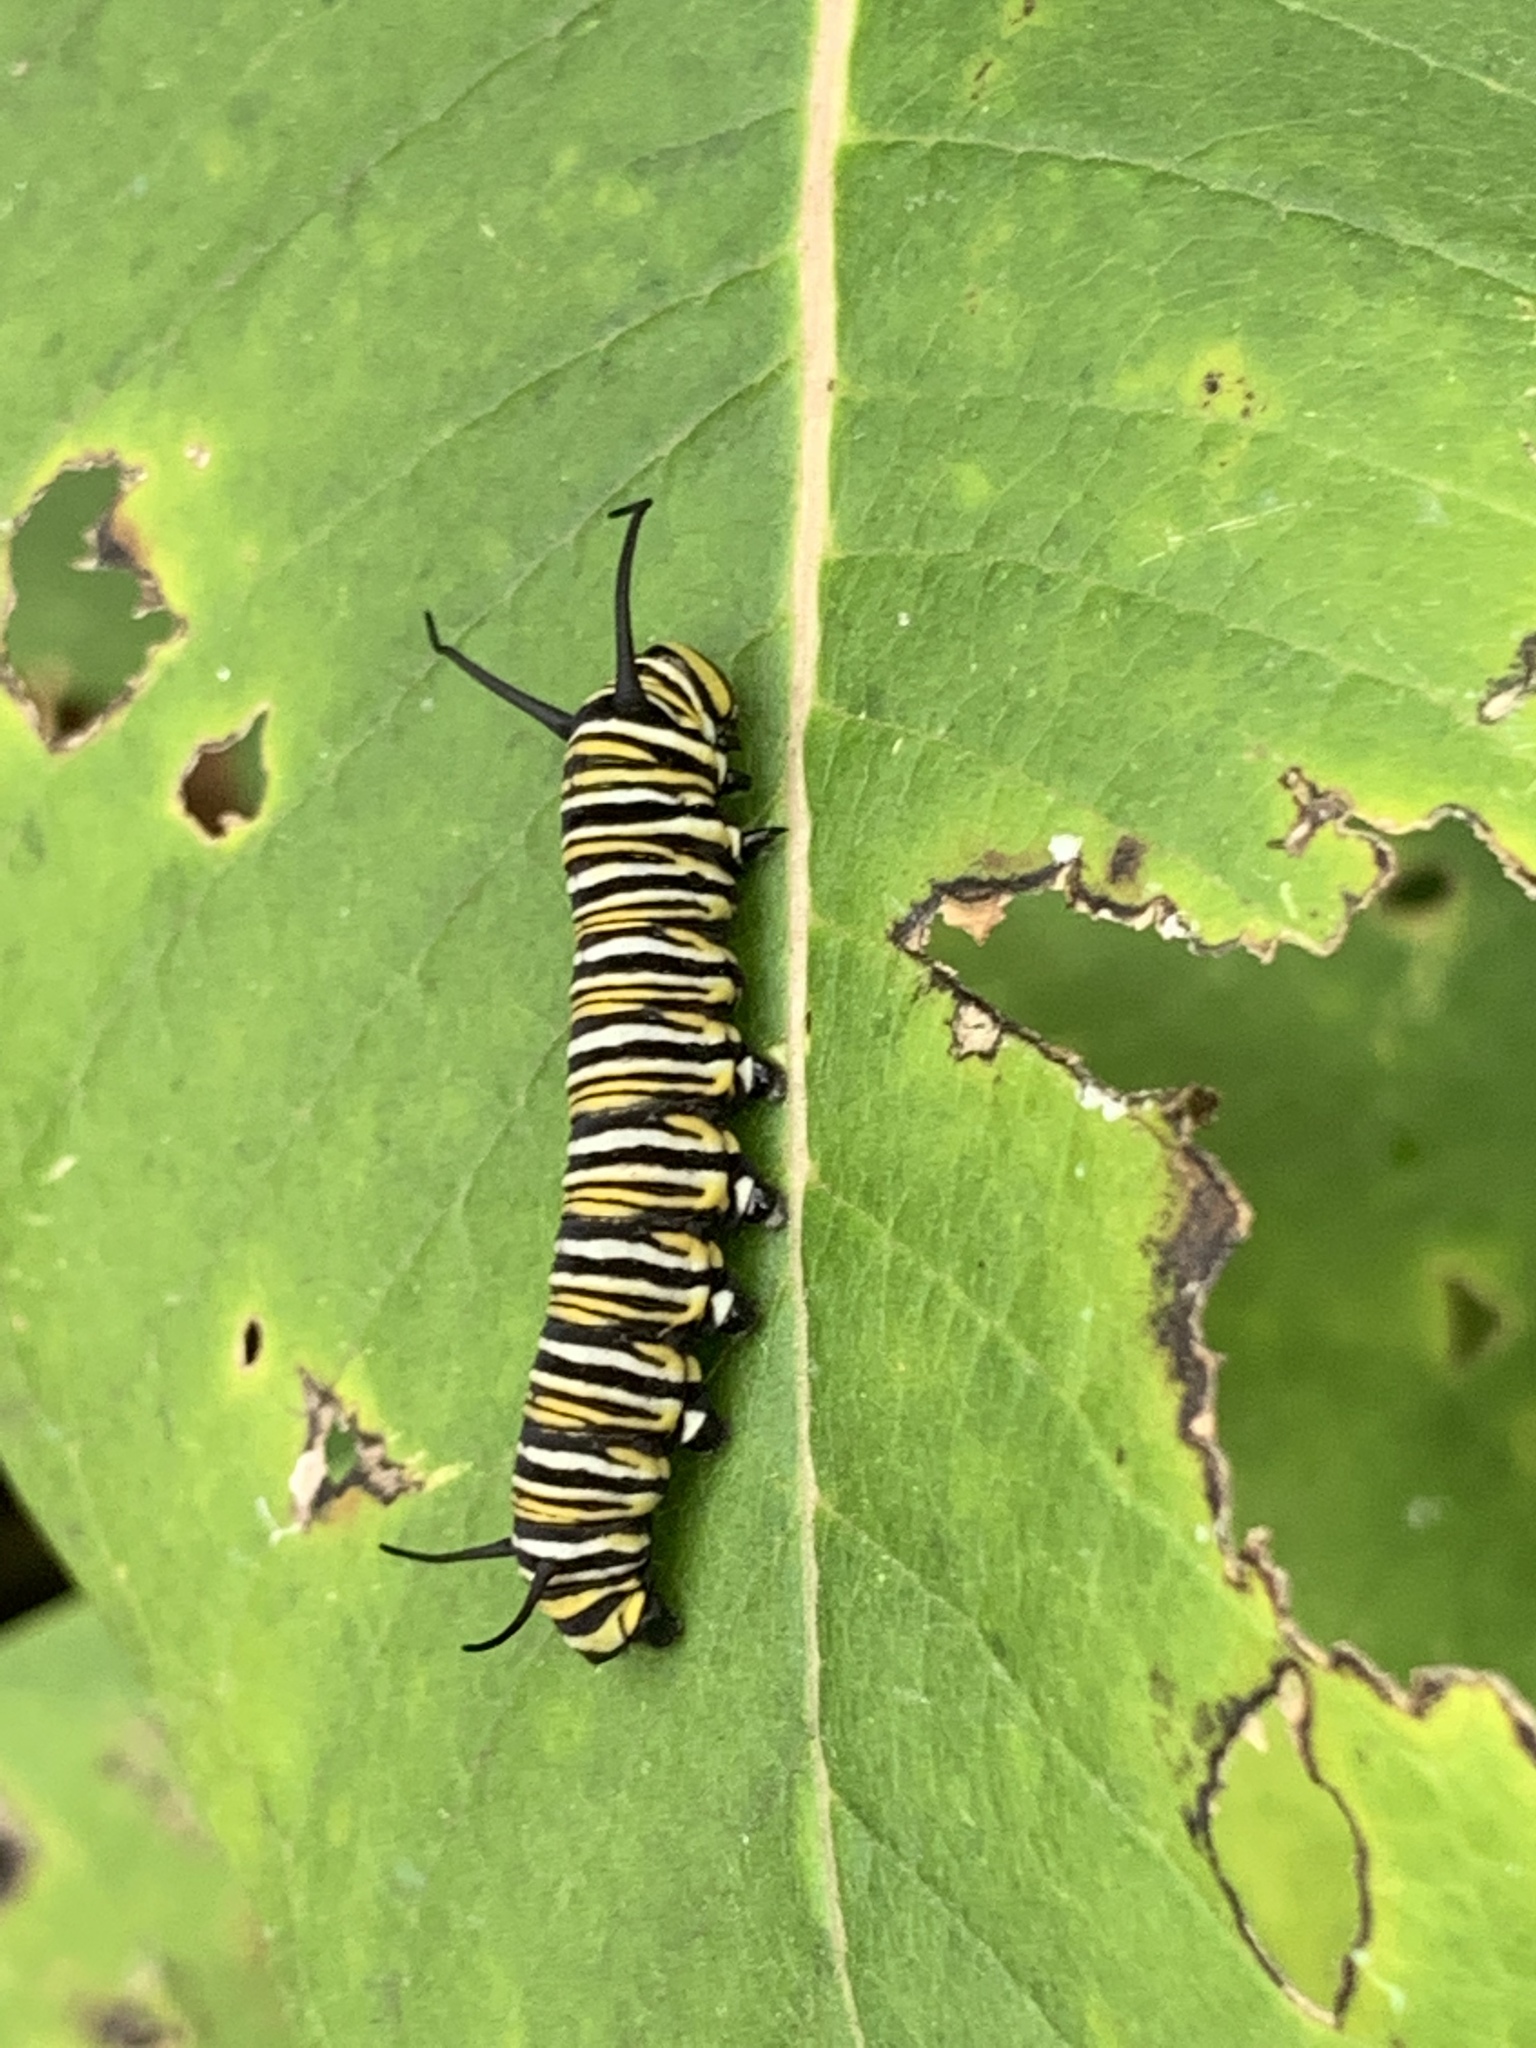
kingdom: Animalia
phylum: Arthropoda
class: Insecta
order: Lepidoptera
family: Nymphalidae
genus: Danaus
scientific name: Danaus plexippus
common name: Monarch
